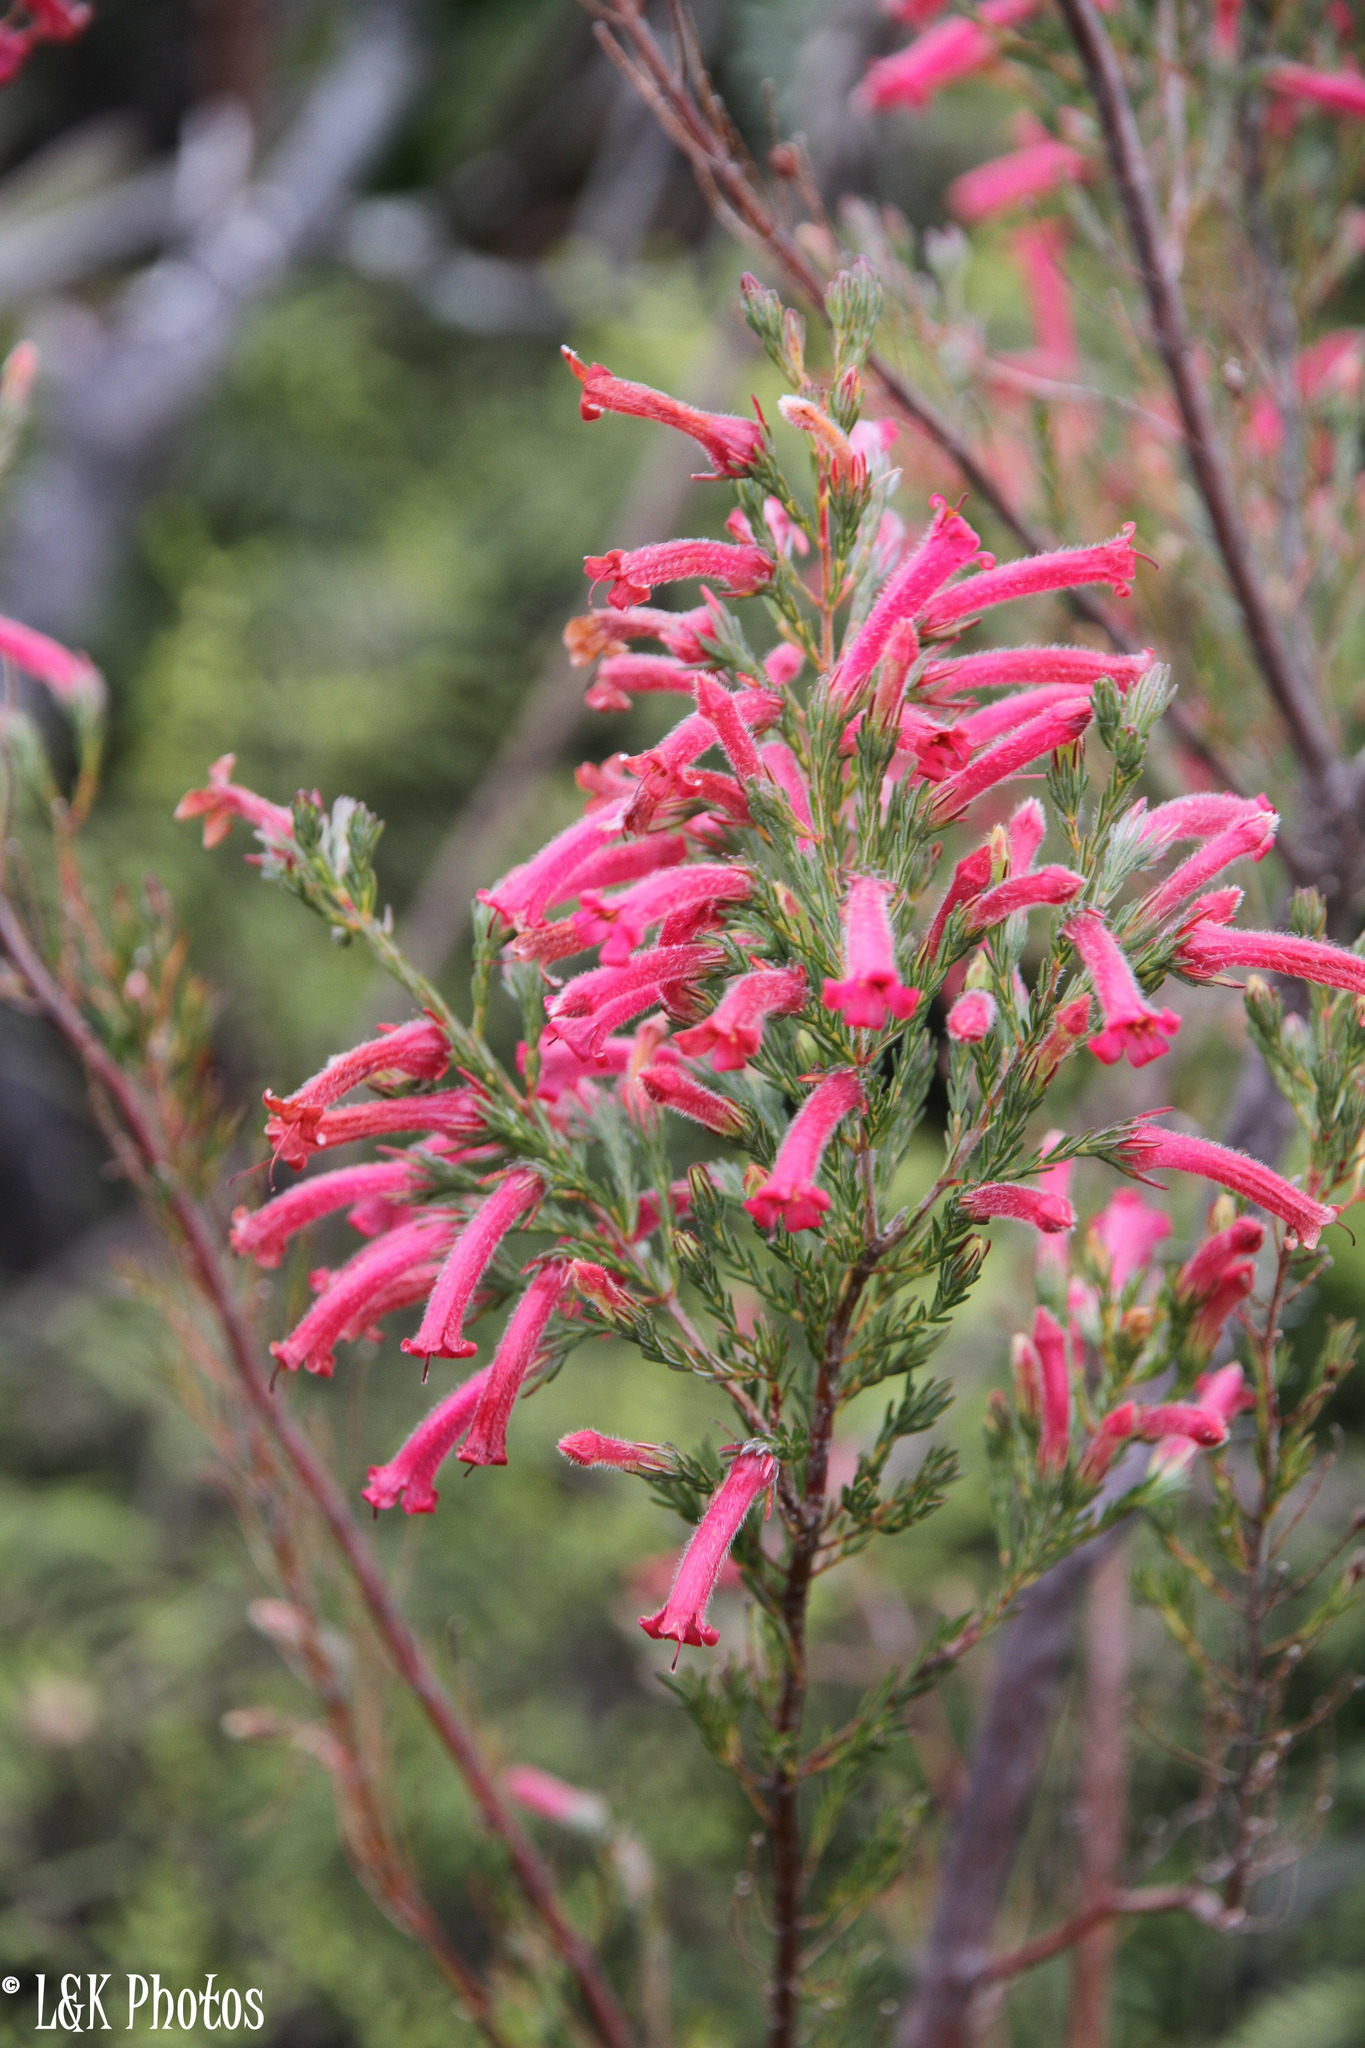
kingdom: Plantae
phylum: Tracheophyta
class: Magnoliopsida
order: Ericales
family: Ericaceae
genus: Erica
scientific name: Erica curviflora
